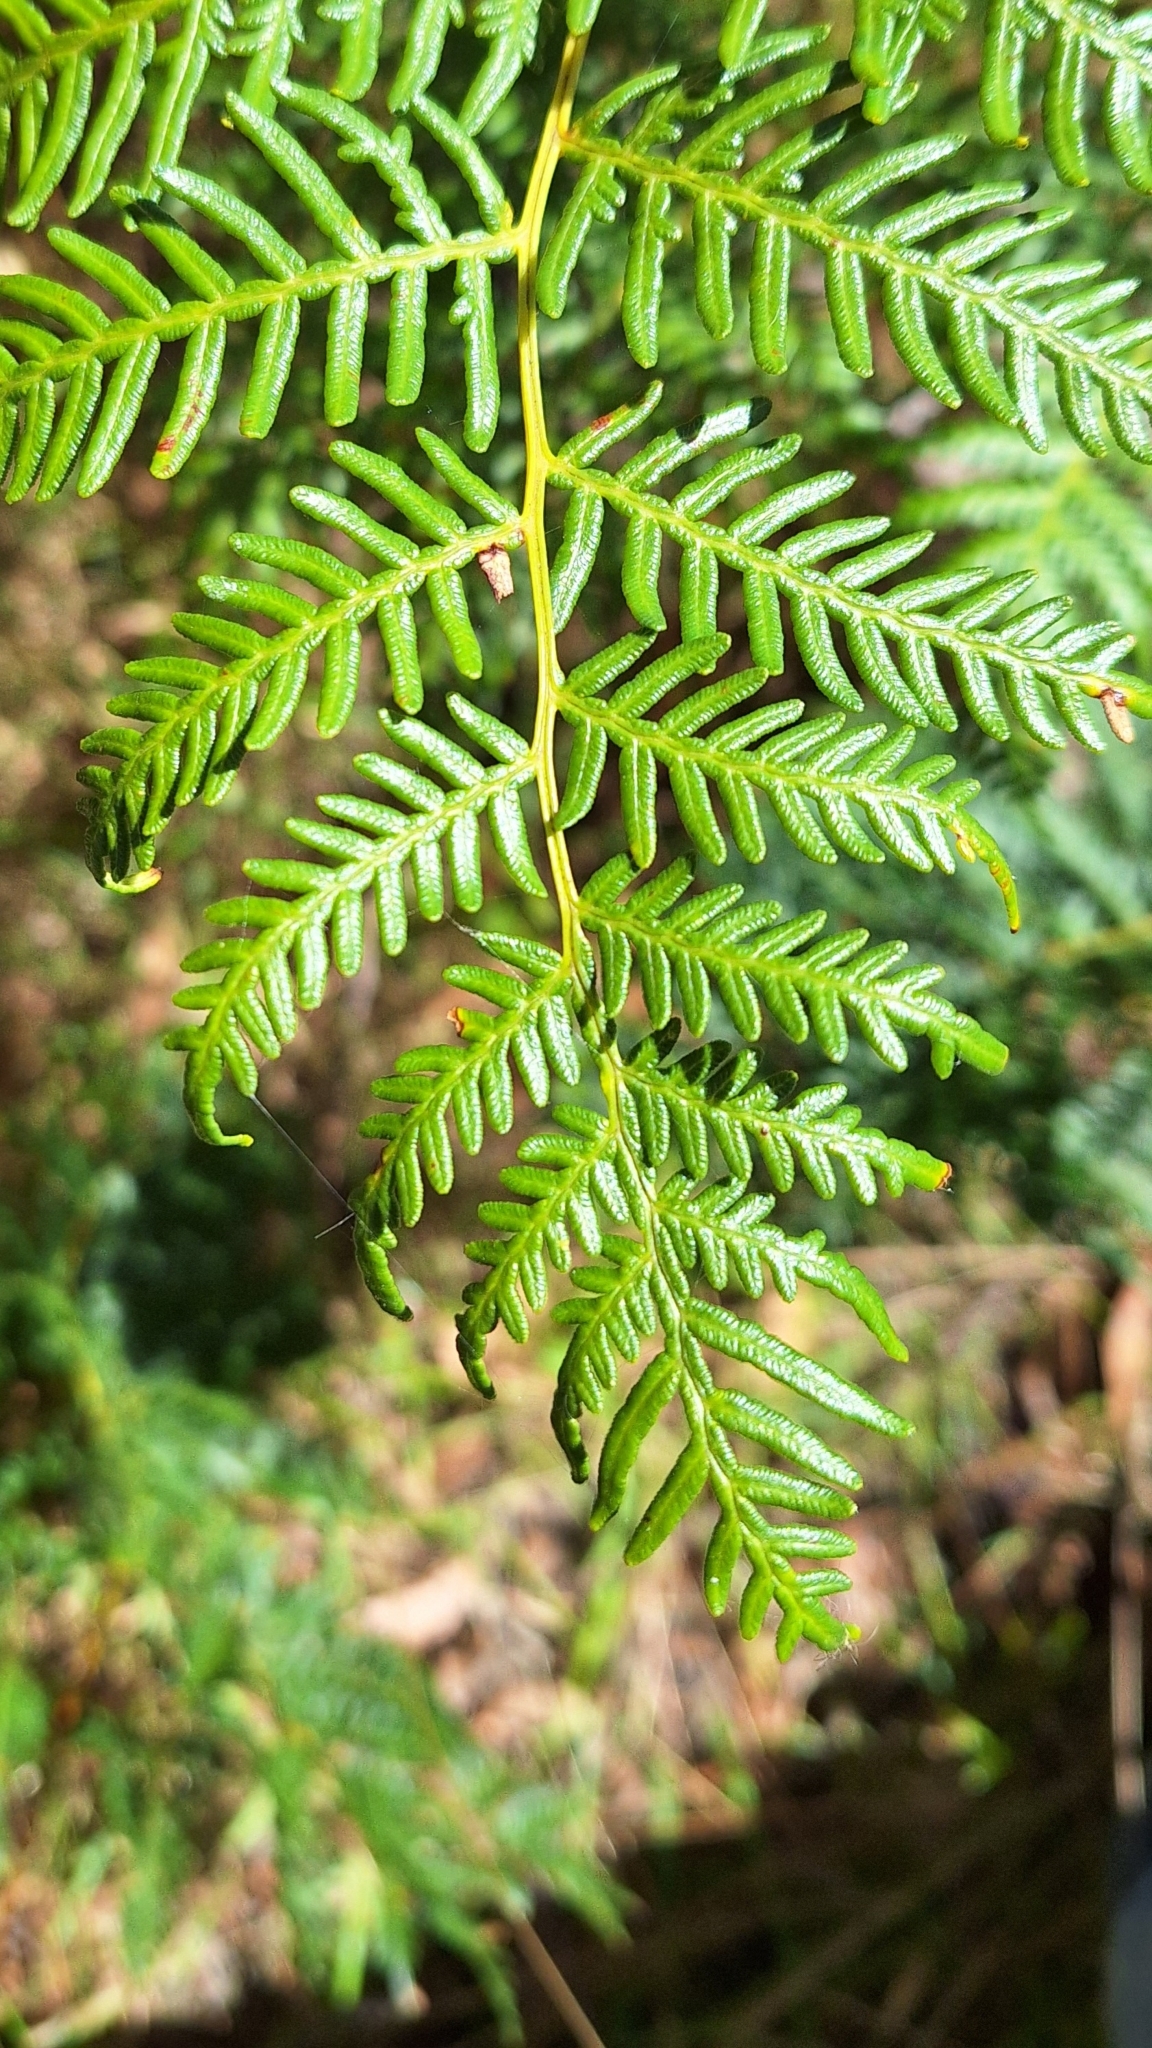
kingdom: Plantae
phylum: Tracheophyta
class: Polypodiopsida
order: Polypodiales
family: Dennstaedtiaceae
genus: Pteridium
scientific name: Pteridium esculentum
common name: Bracken fern
